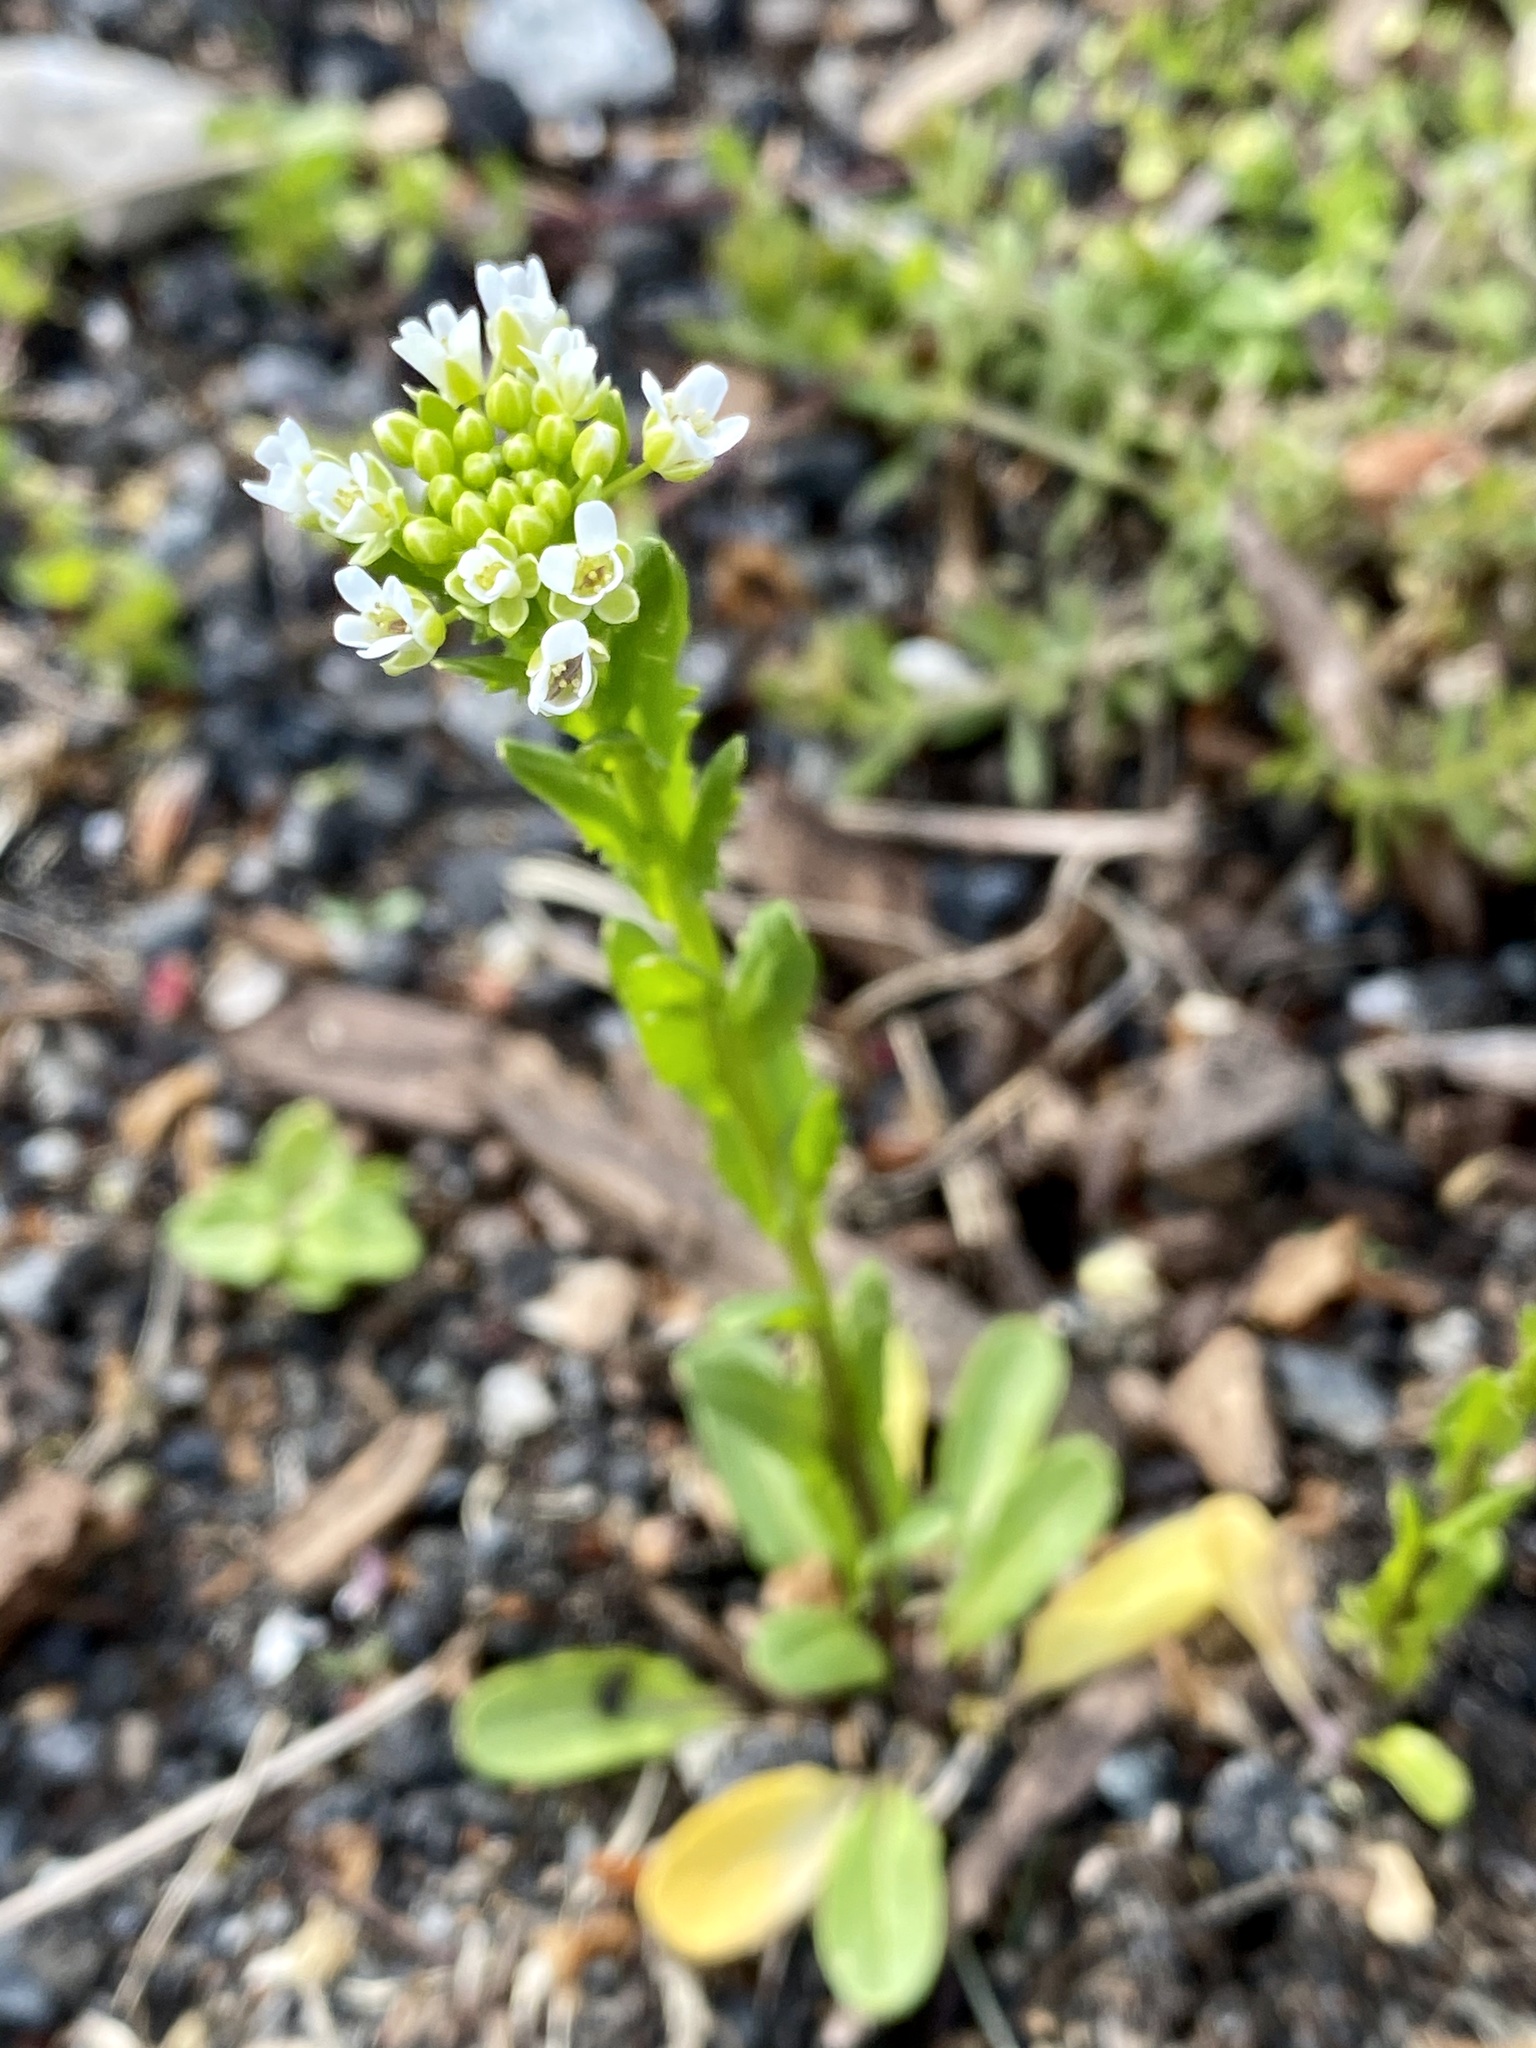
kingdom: Plantae
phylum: Tracheophyta
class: Magnoliopsida
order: Brassicales
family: Brassicaceae
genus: Thlaspi
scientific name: Thlaspi arvense
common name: Field pennycress
